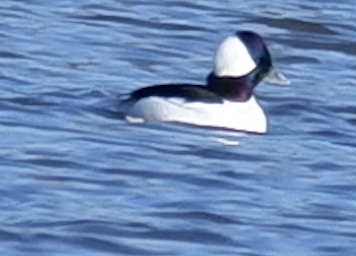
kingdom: Animalia
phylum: Chordata
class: Aves
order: Anseriformes
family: Anatidae
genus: Bucephala
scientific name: Bucephala albeola
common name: Bufflehead
